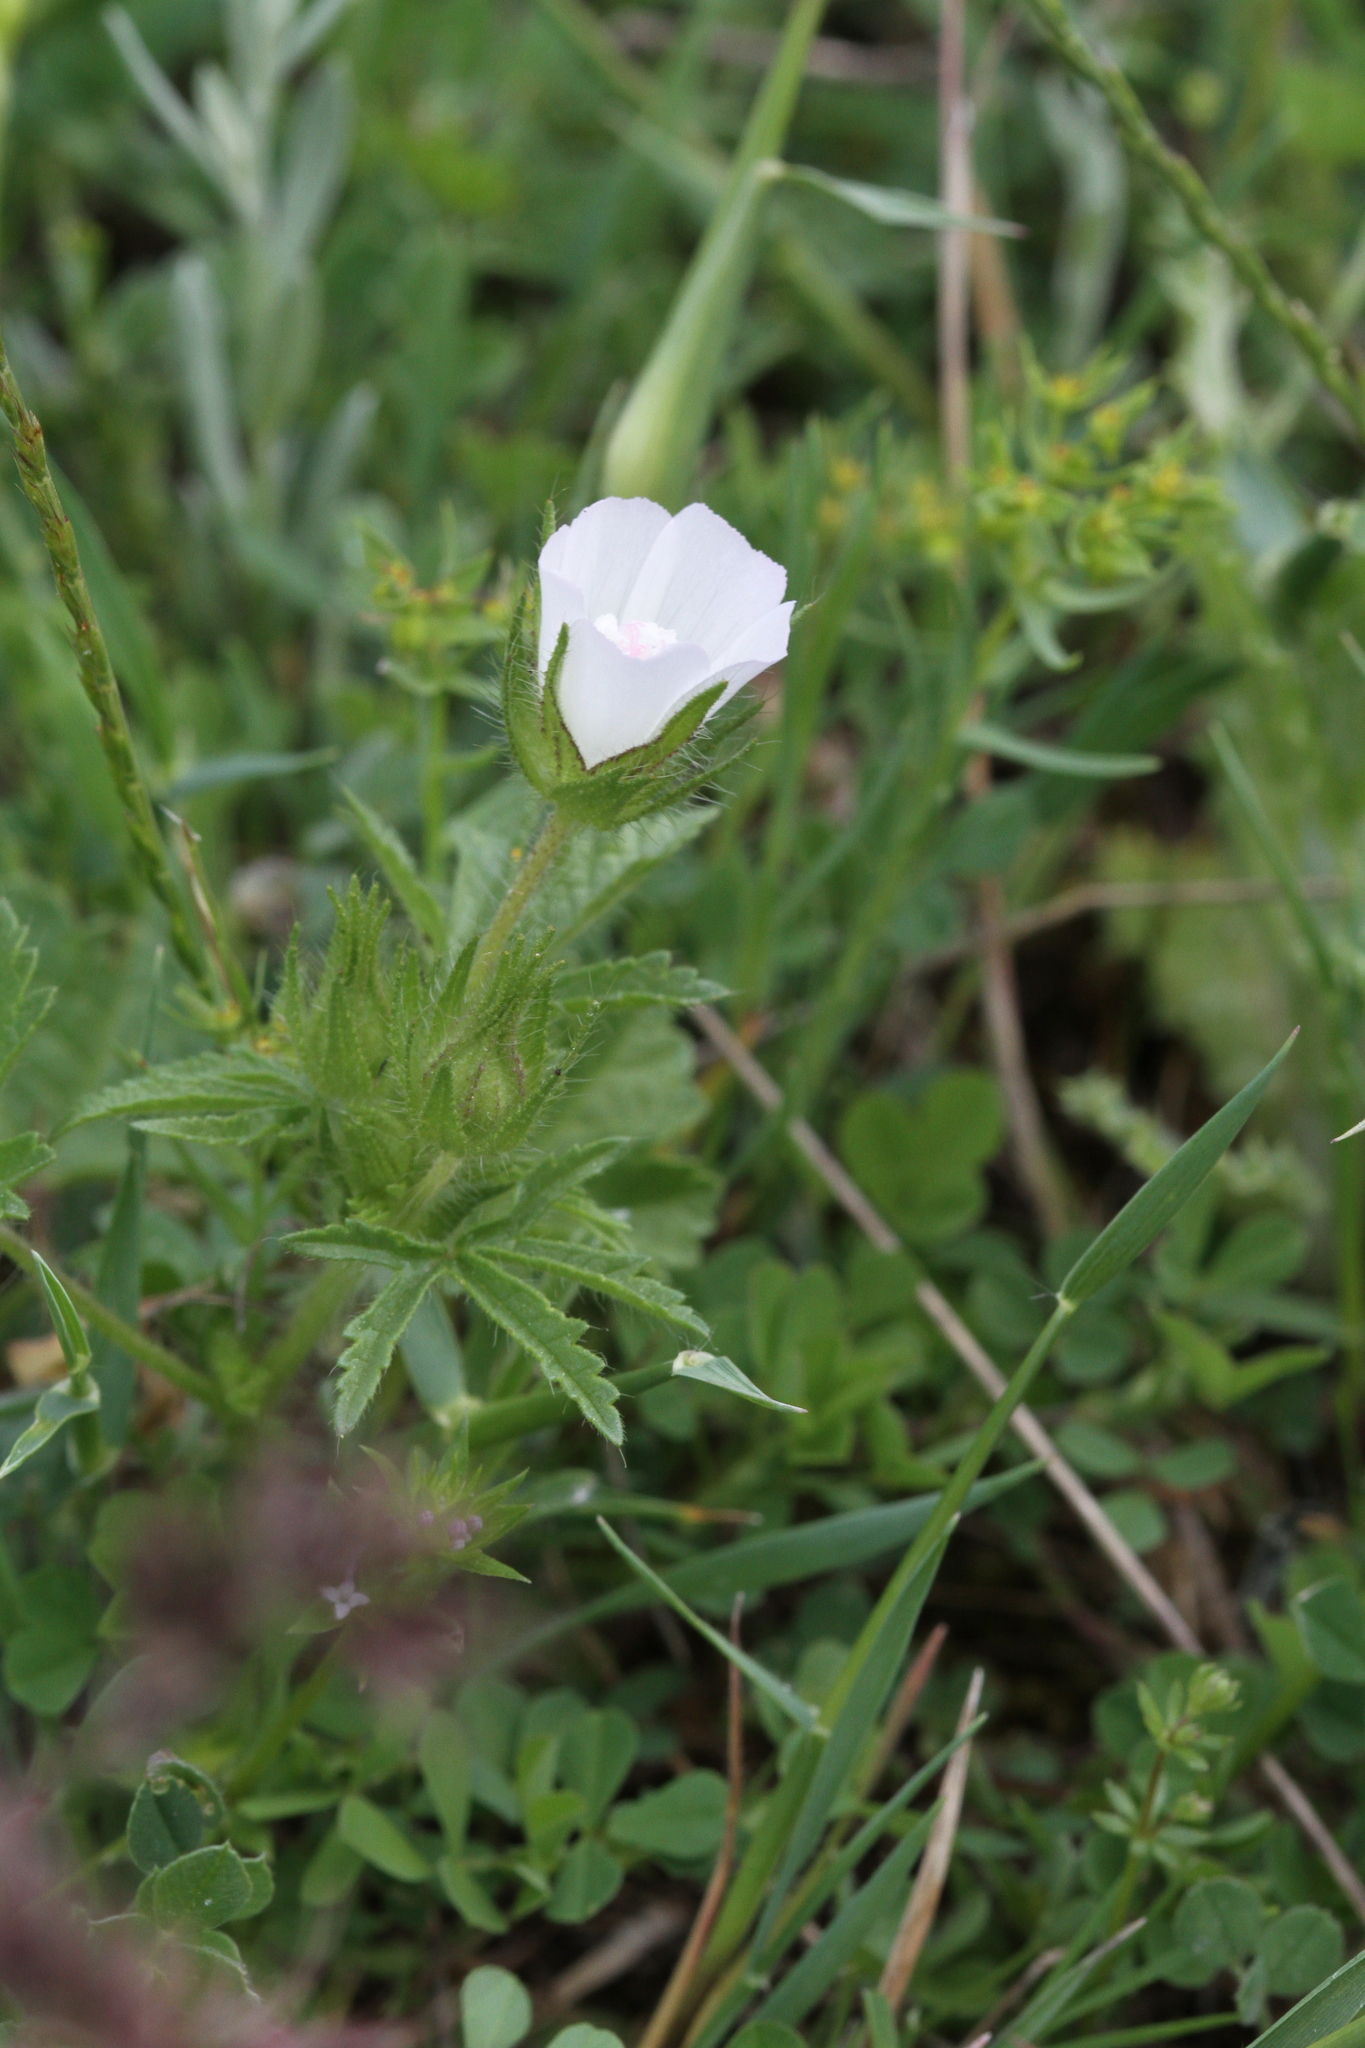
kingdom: Plantae
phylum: Tracheophyta
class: Magnoliopsida
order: Malvales
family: Malvaceae
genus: Althaea
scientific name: Althaea hirsuta
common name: Rough marsh-mallow
